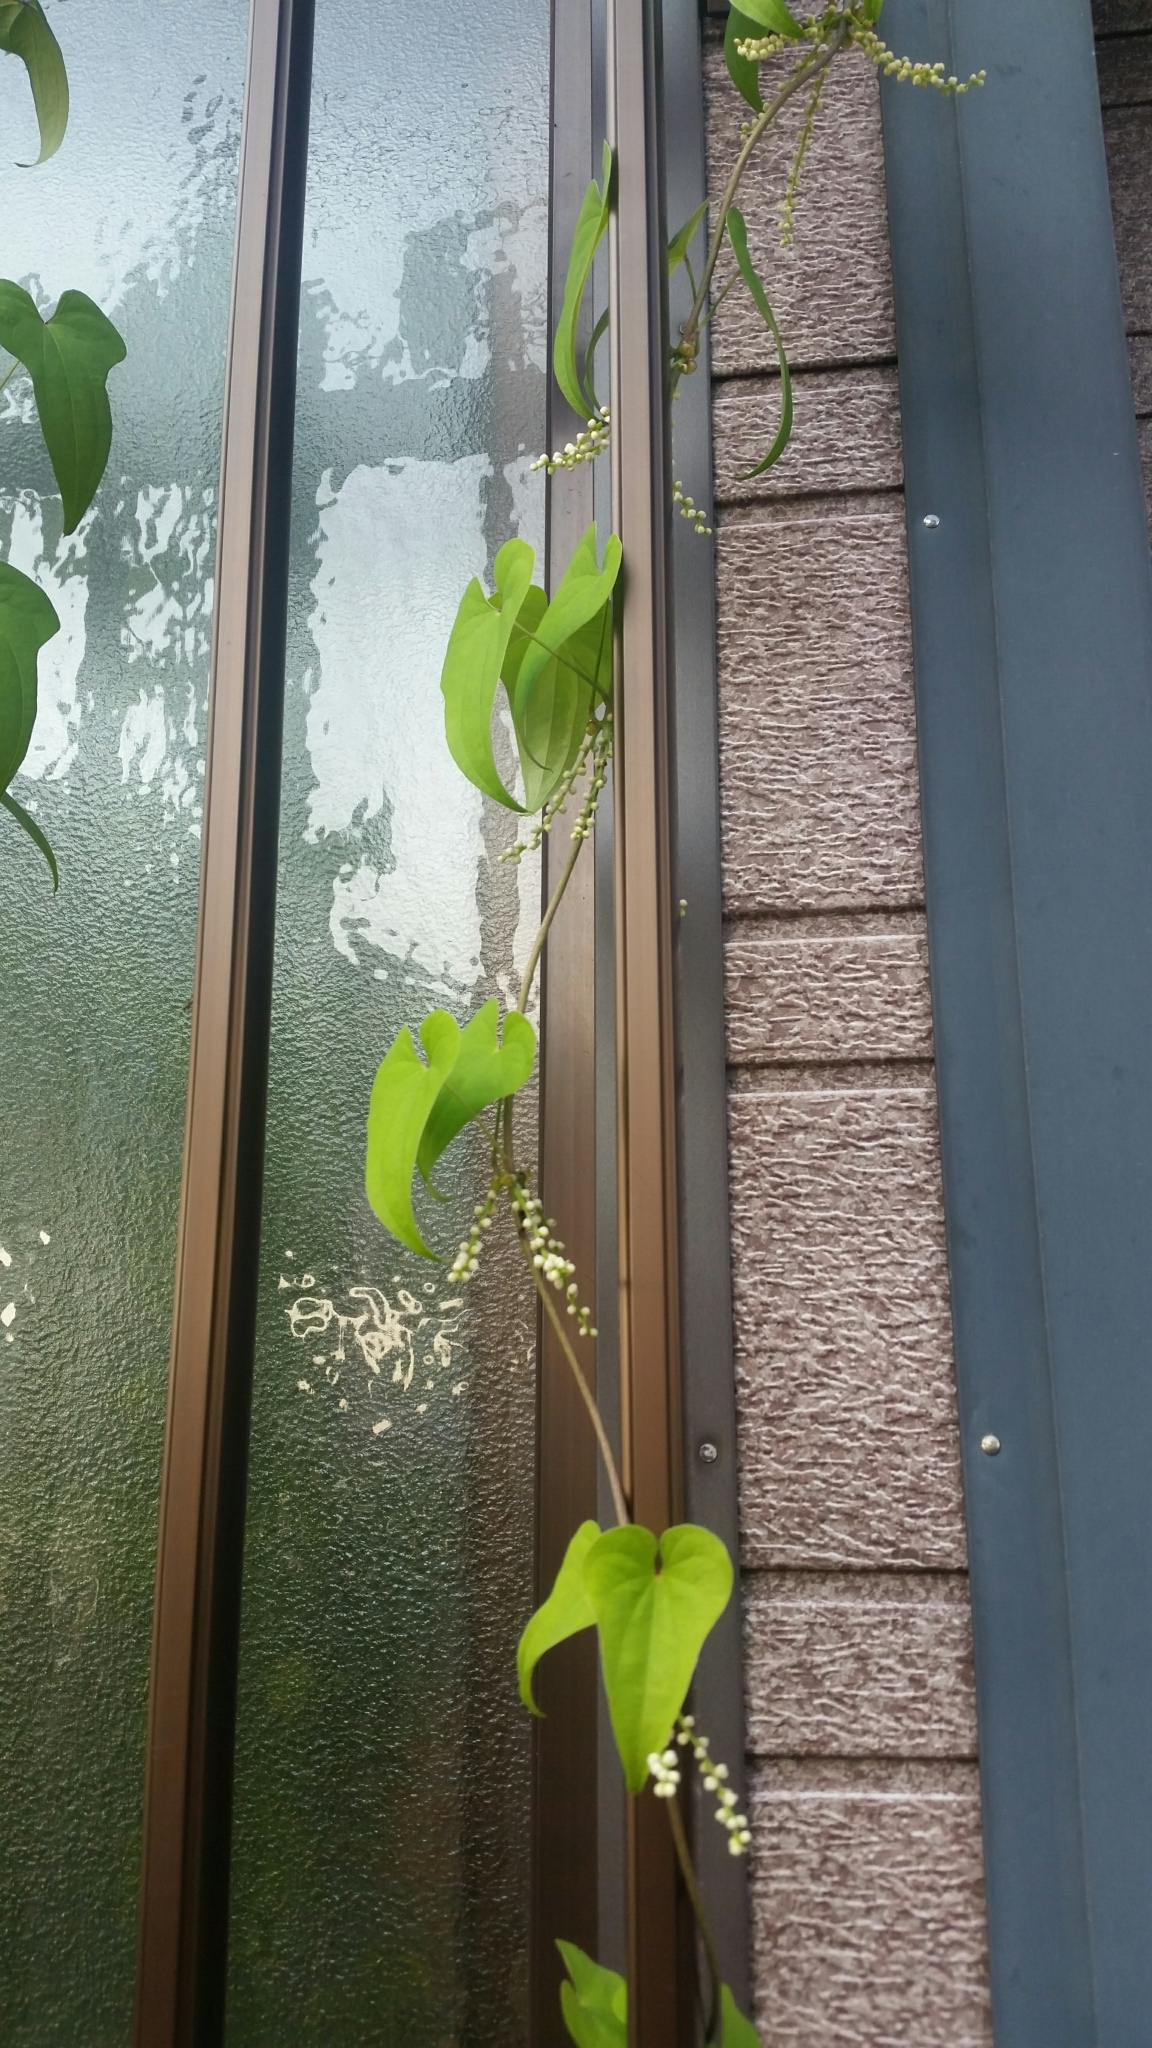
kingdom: Plantae
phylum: Tracheophyta
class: Liliopsida
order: Dioscoreales
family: Dioscoreaceae
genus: Dioscorea
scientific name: Dioscorea polystachya
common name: Chinese yam
